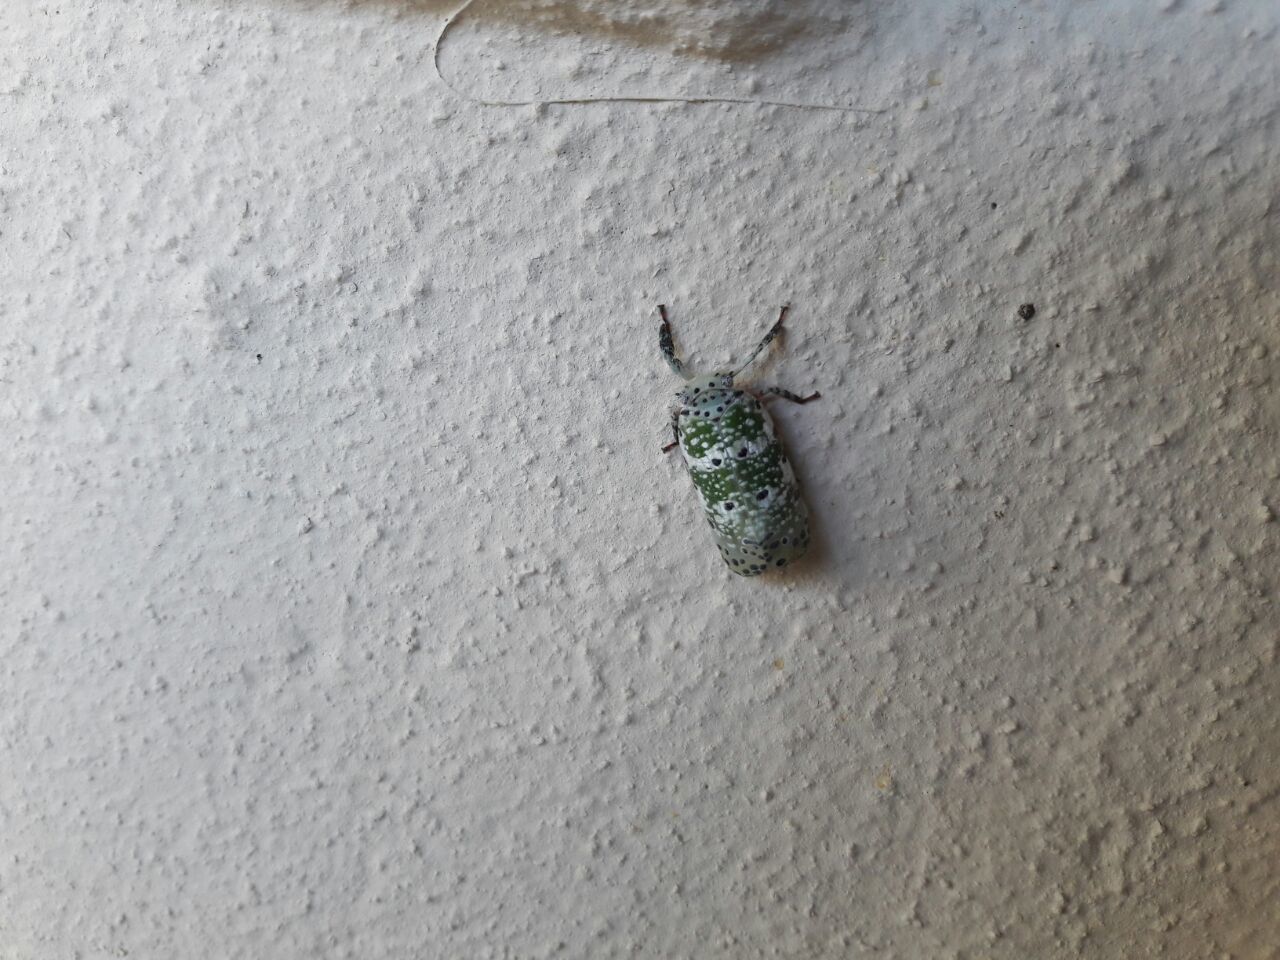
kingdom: Animalia
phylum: Arthropoda
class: Insecta
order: Hemiptera
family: Eurybrachidae
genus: Paropioxys
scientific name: Paropioxys jucundus
